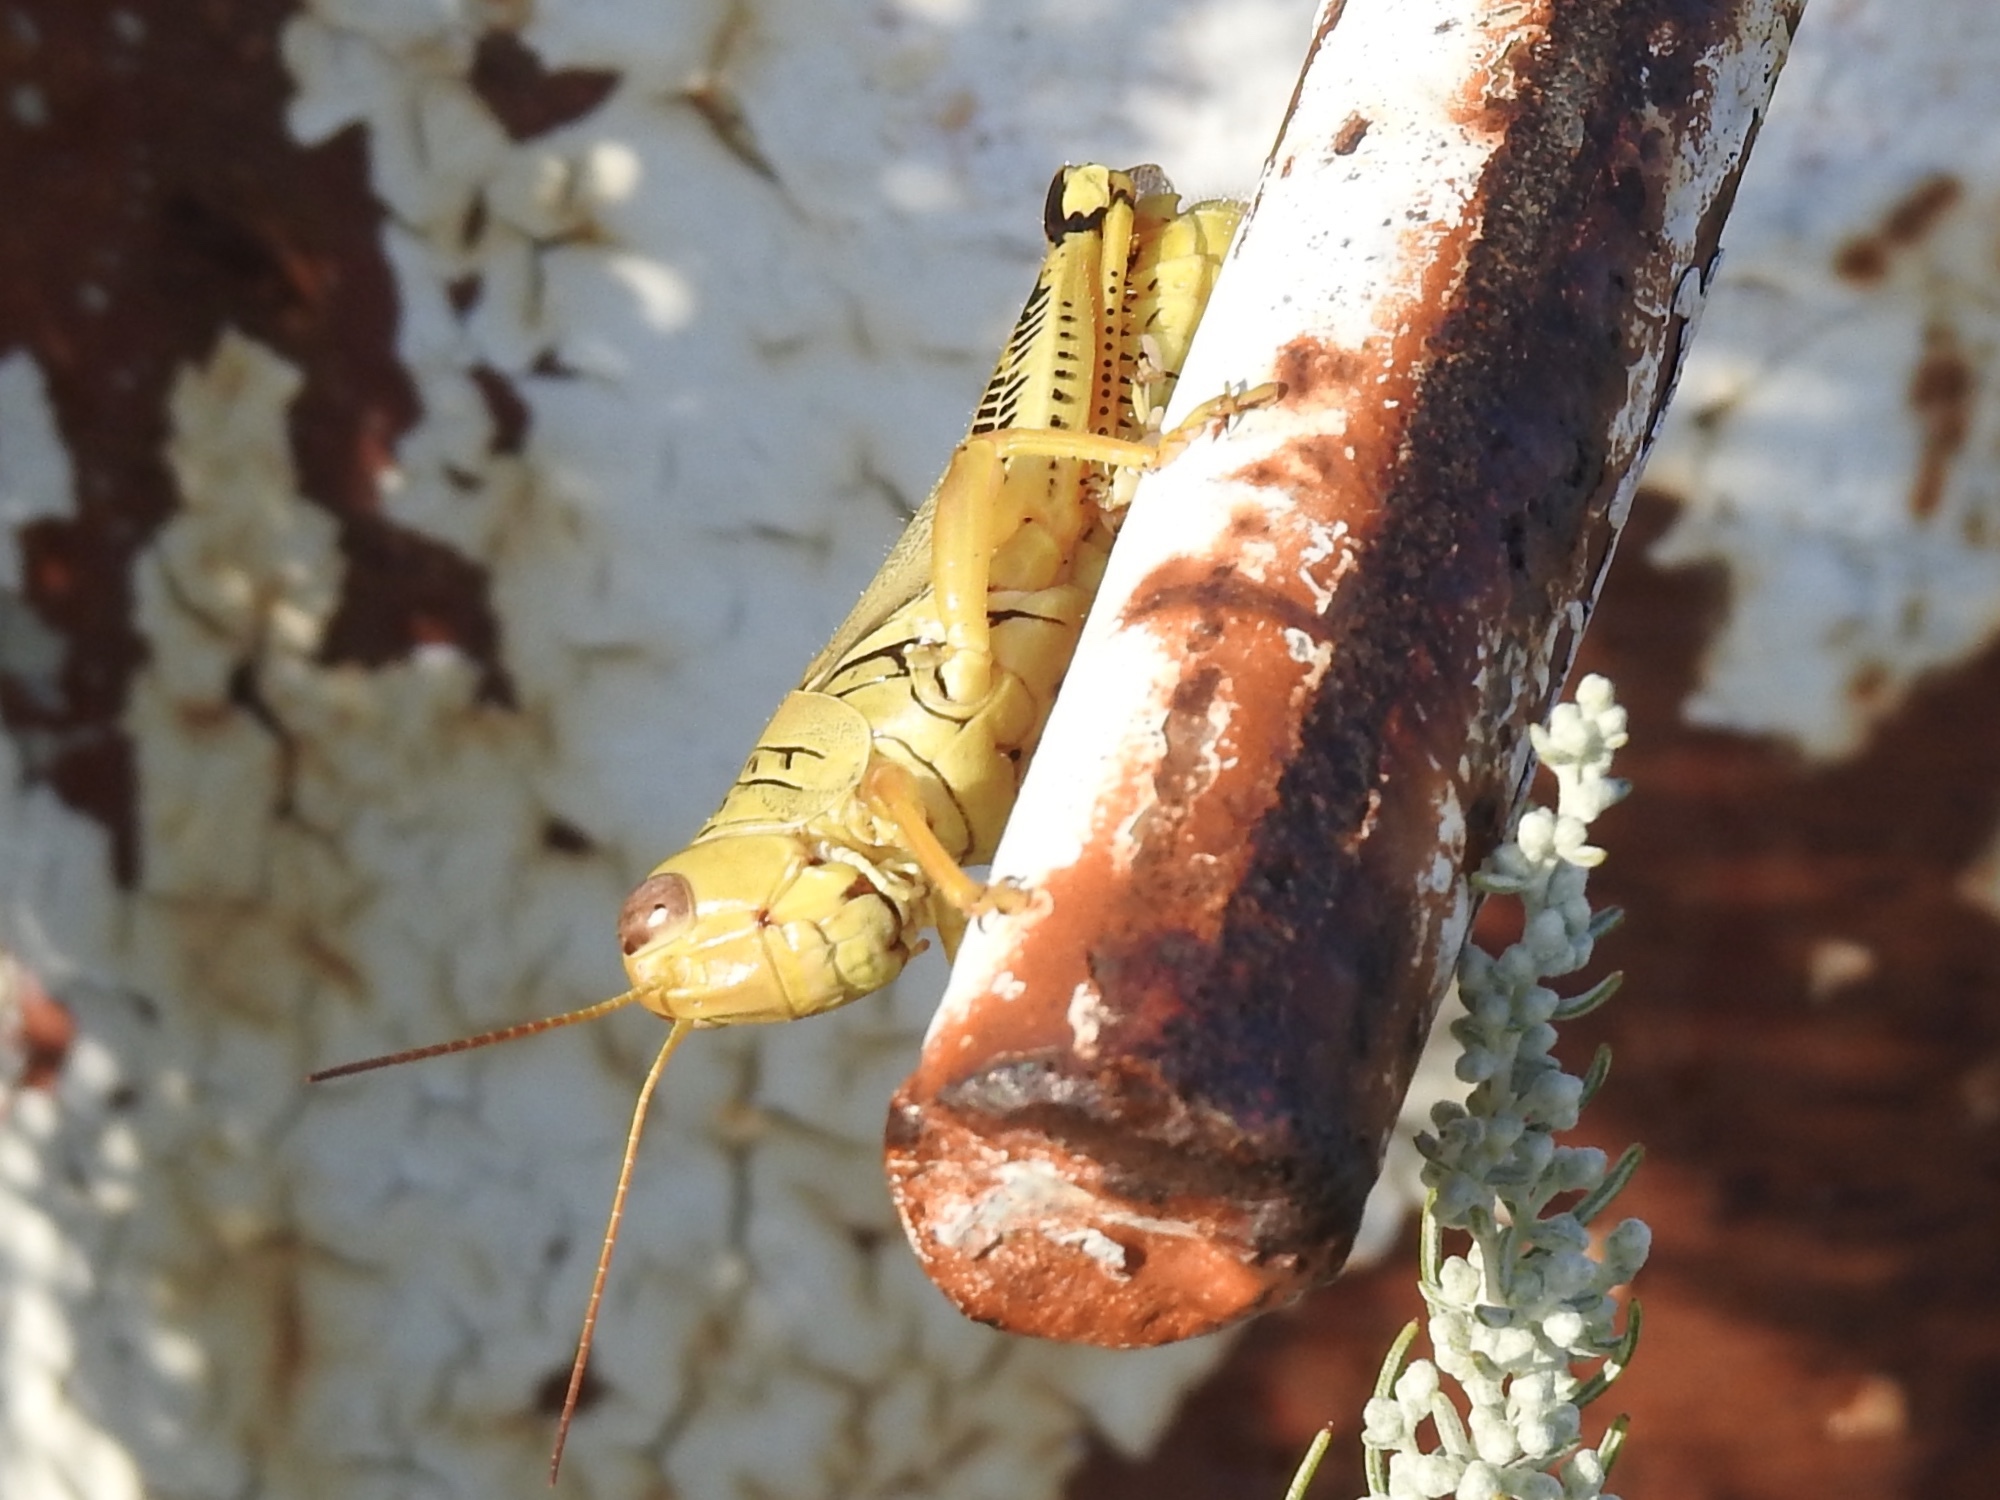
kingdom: Animalia
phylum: Arthropoda
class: Insecta
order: Orthoptera
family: Acrididae
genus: Melanoplus
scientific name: Melanoplus differentialis
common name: Differential grasshopper
